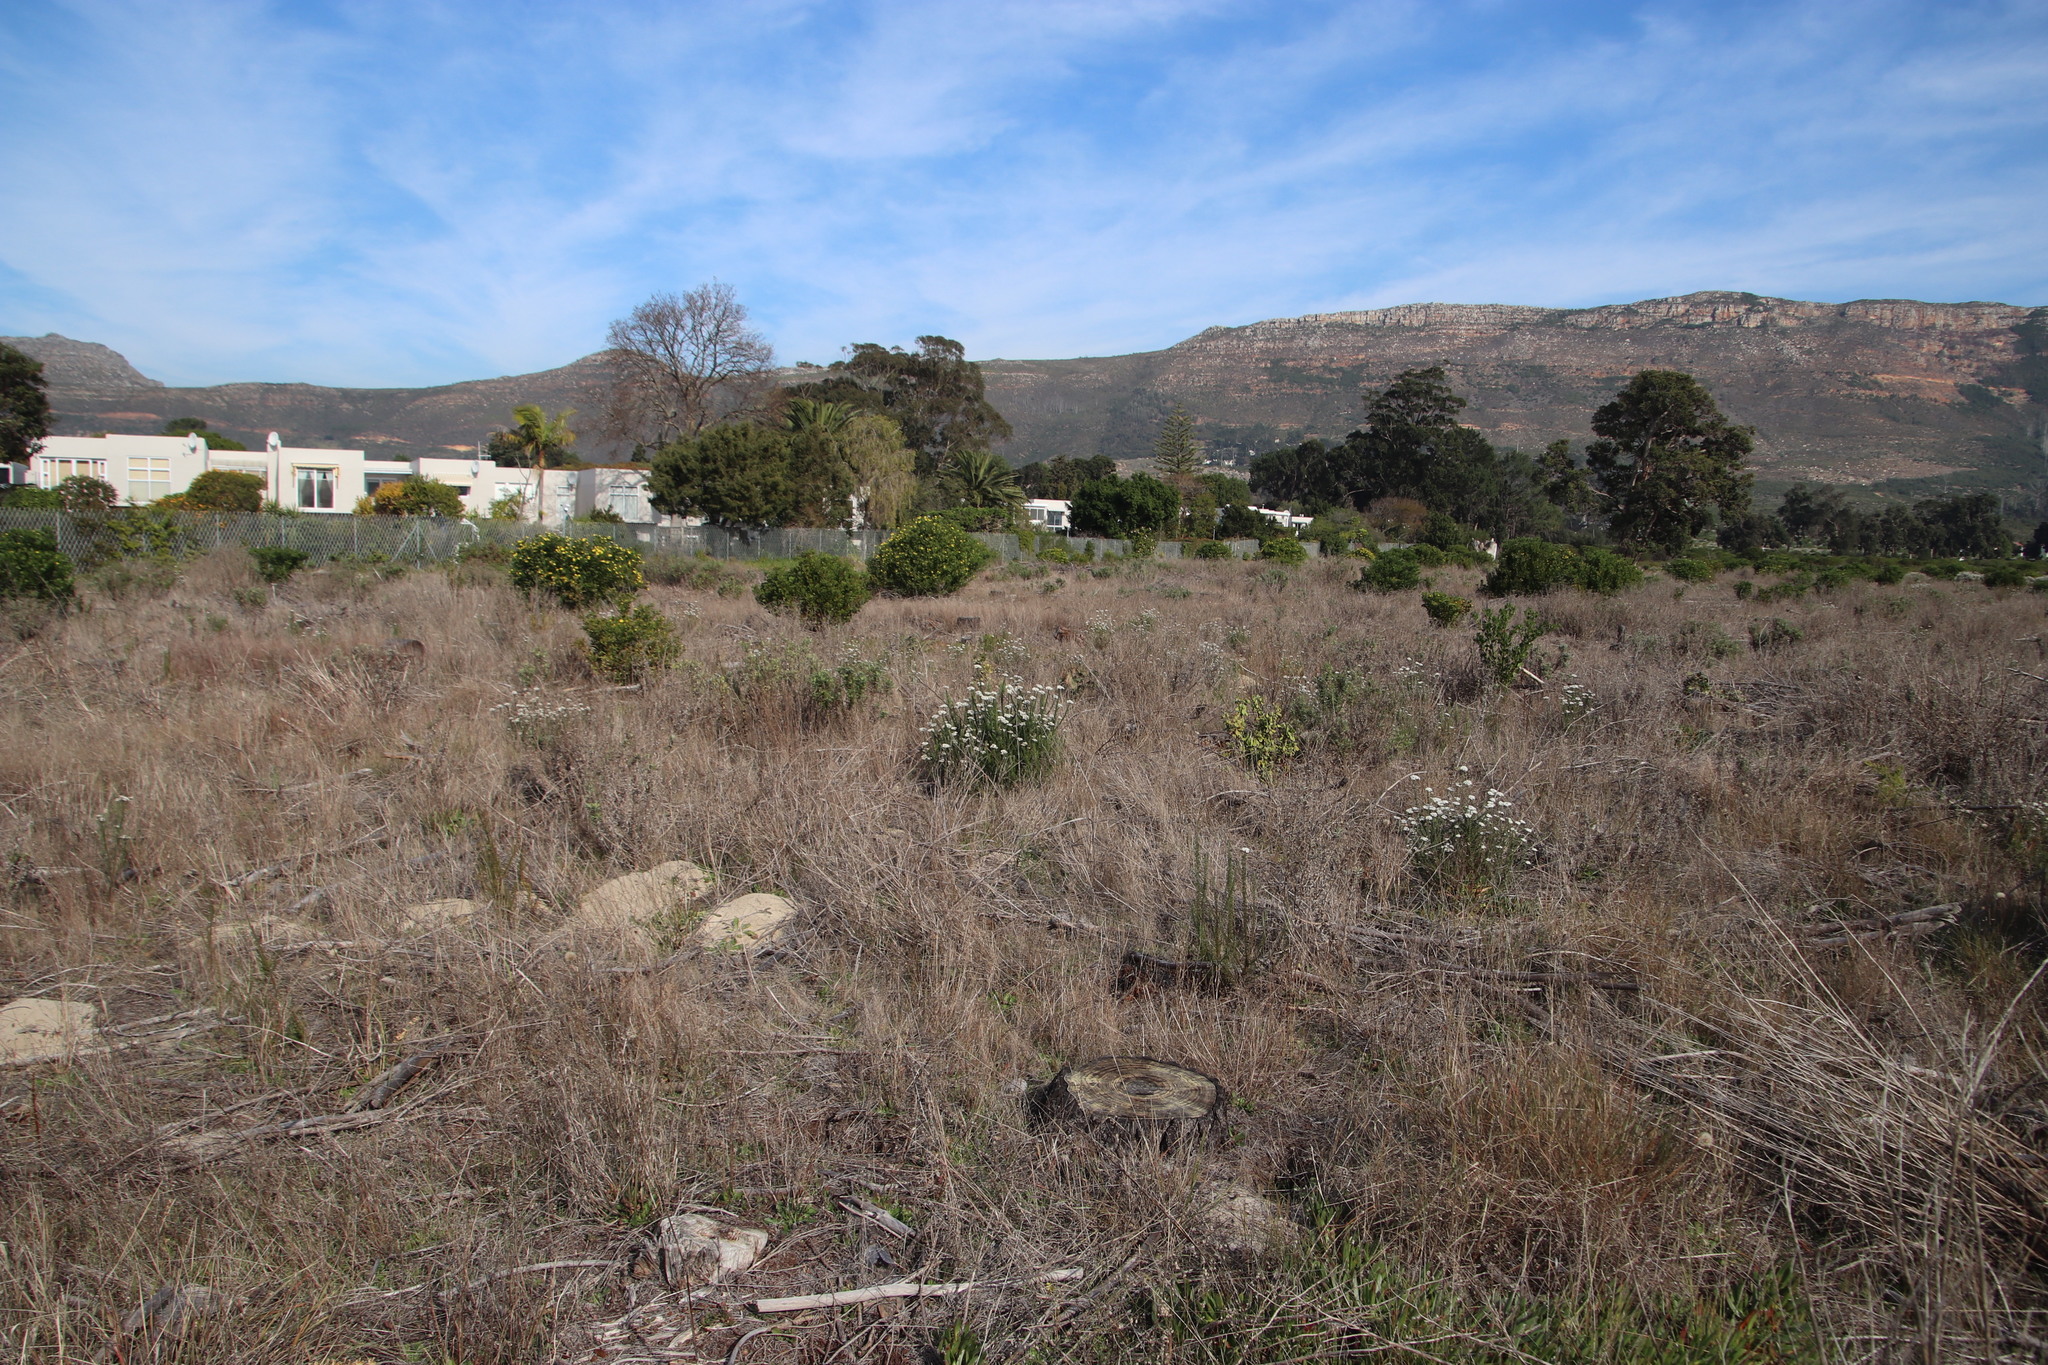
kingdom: Plantae
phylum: Tracheophyta
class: Magnoliopsida
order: Asterales
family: Asteraceae
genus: Metalasia
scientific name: Metalasia densa
